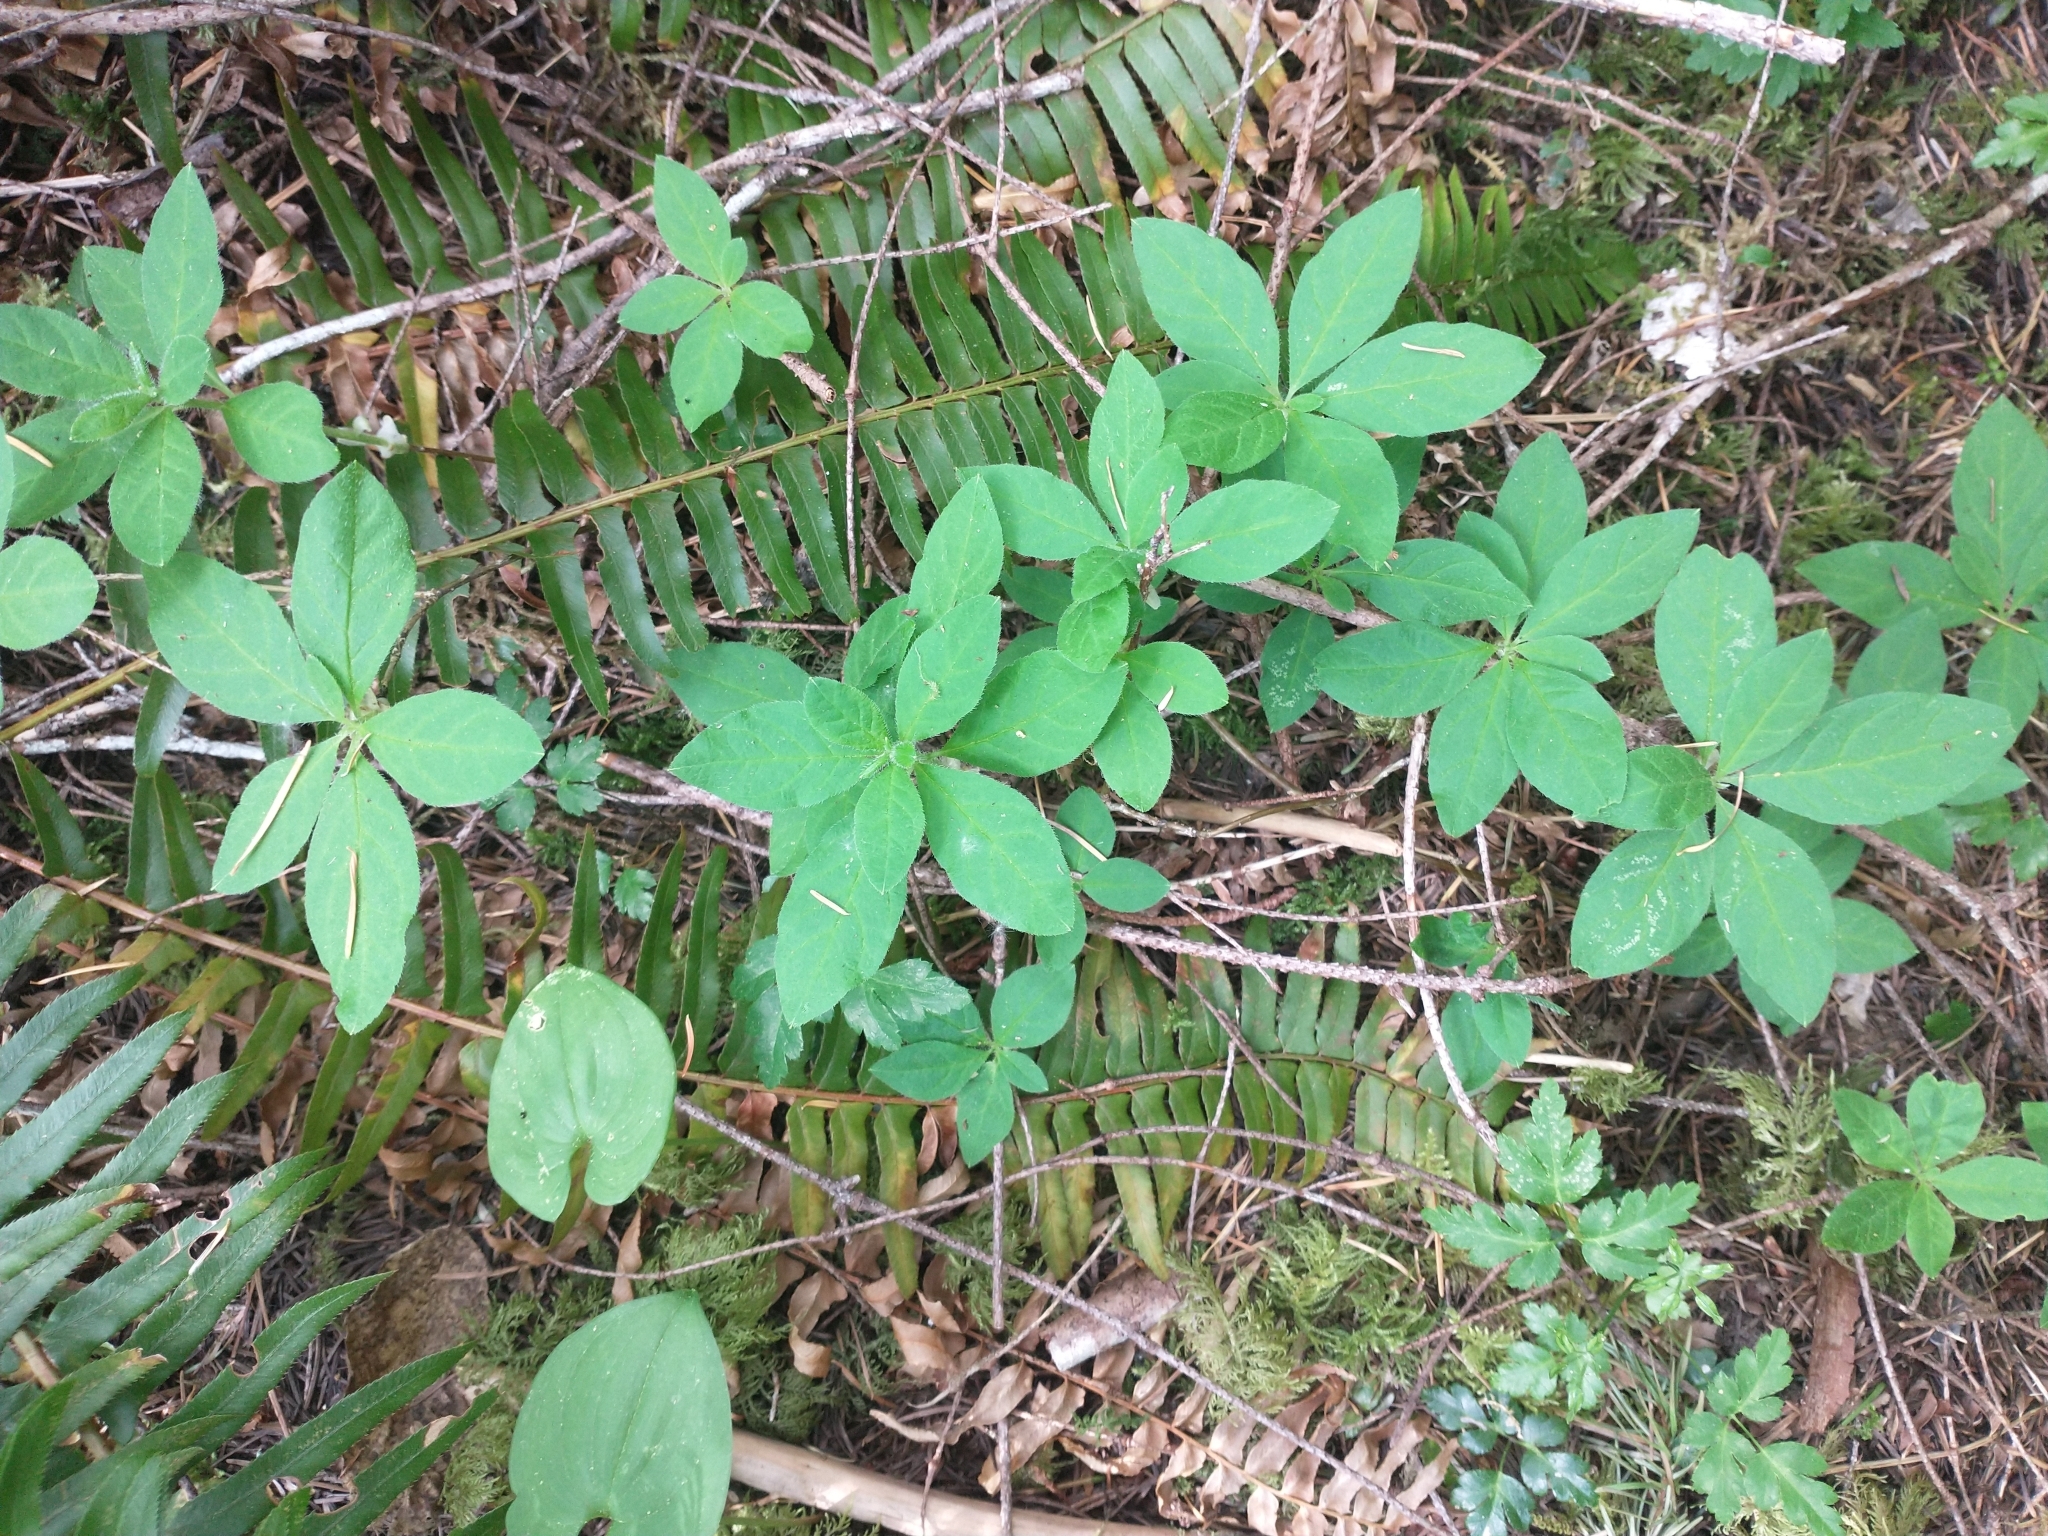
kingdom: Plantae
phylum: Tracheophyta
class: Magnoliopsida
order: Ericales
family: Ericaceae
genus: Rhododendron
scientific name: Rhododendron menziesii
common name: Pacific menziesia
